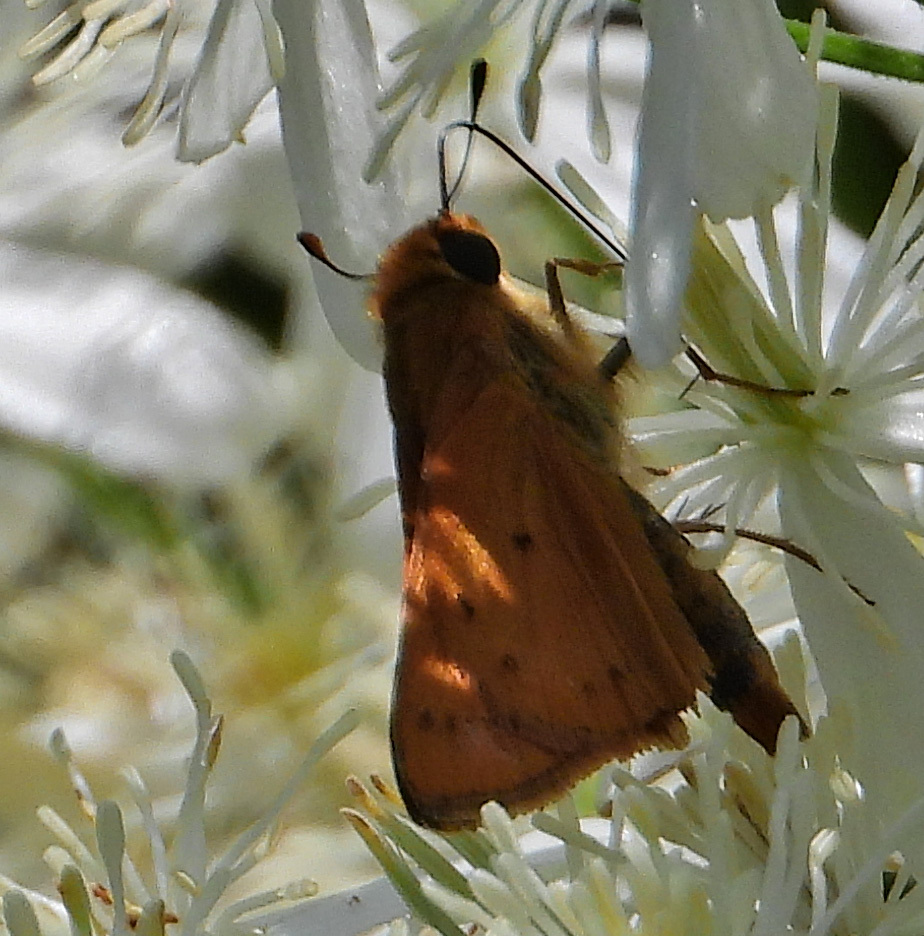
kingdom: Animalia
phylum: Arthropoda
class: Insecta
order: Lepidoptera
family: Hesperiidae
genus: Hylephila
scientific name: Hylephila phyleus
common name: Fiery skipper
